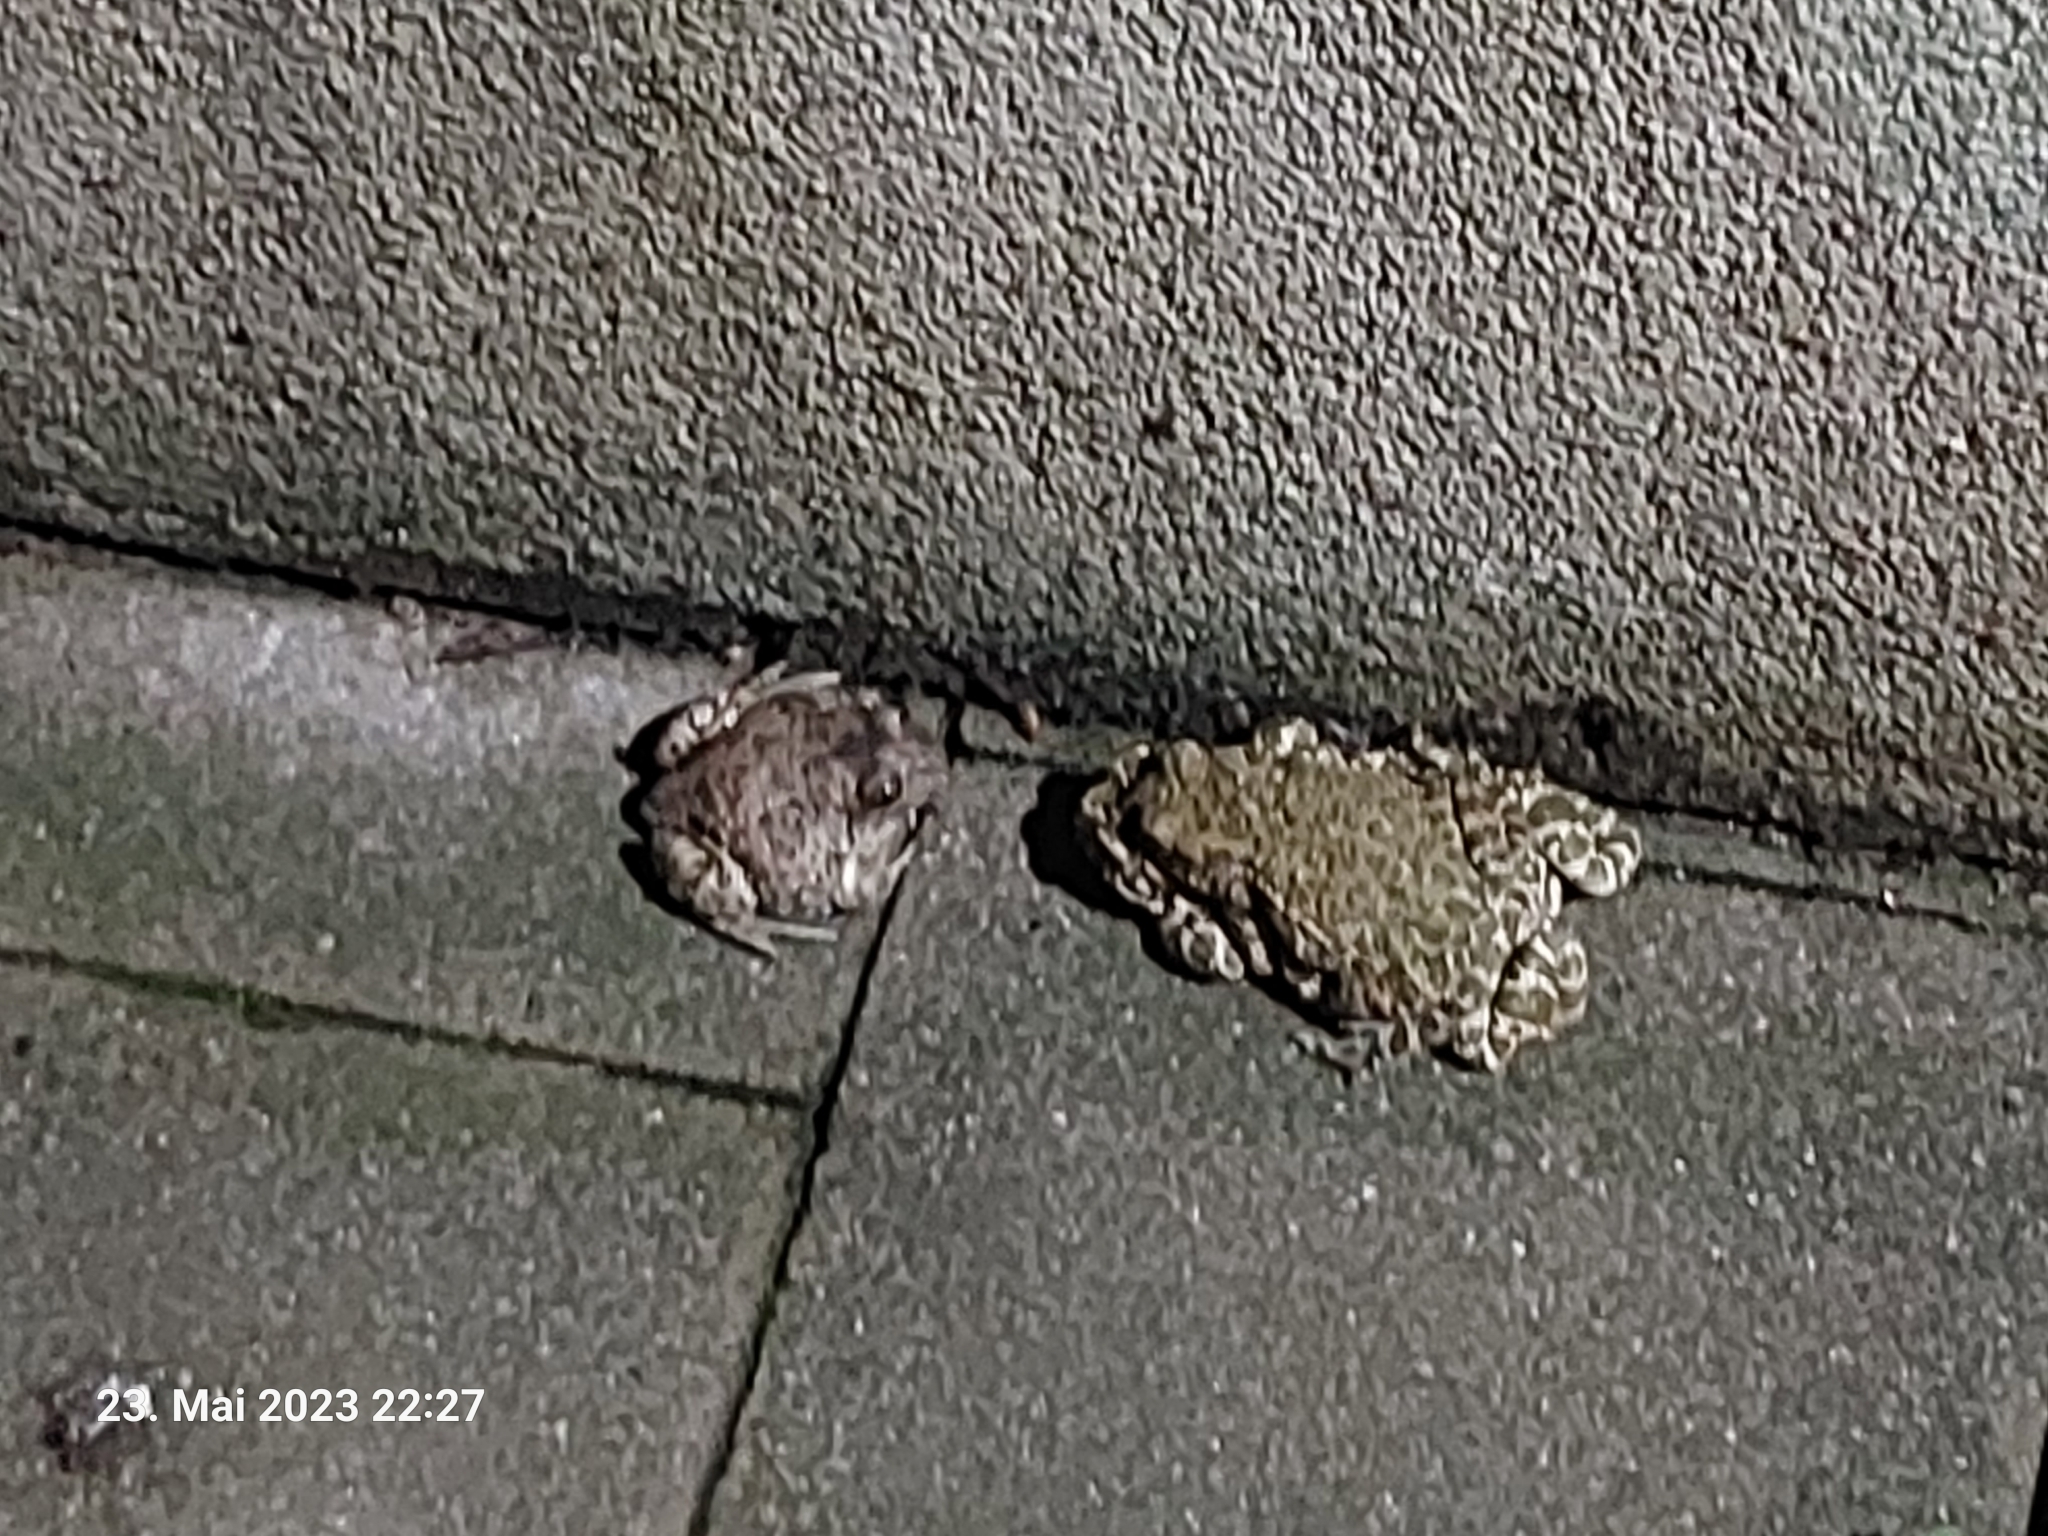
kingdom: Animalia
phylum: Chordata
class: Amphibia
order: Anura
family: Bufonidae
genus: Bufotes
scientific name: Bufotes viridis
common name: European green toad
